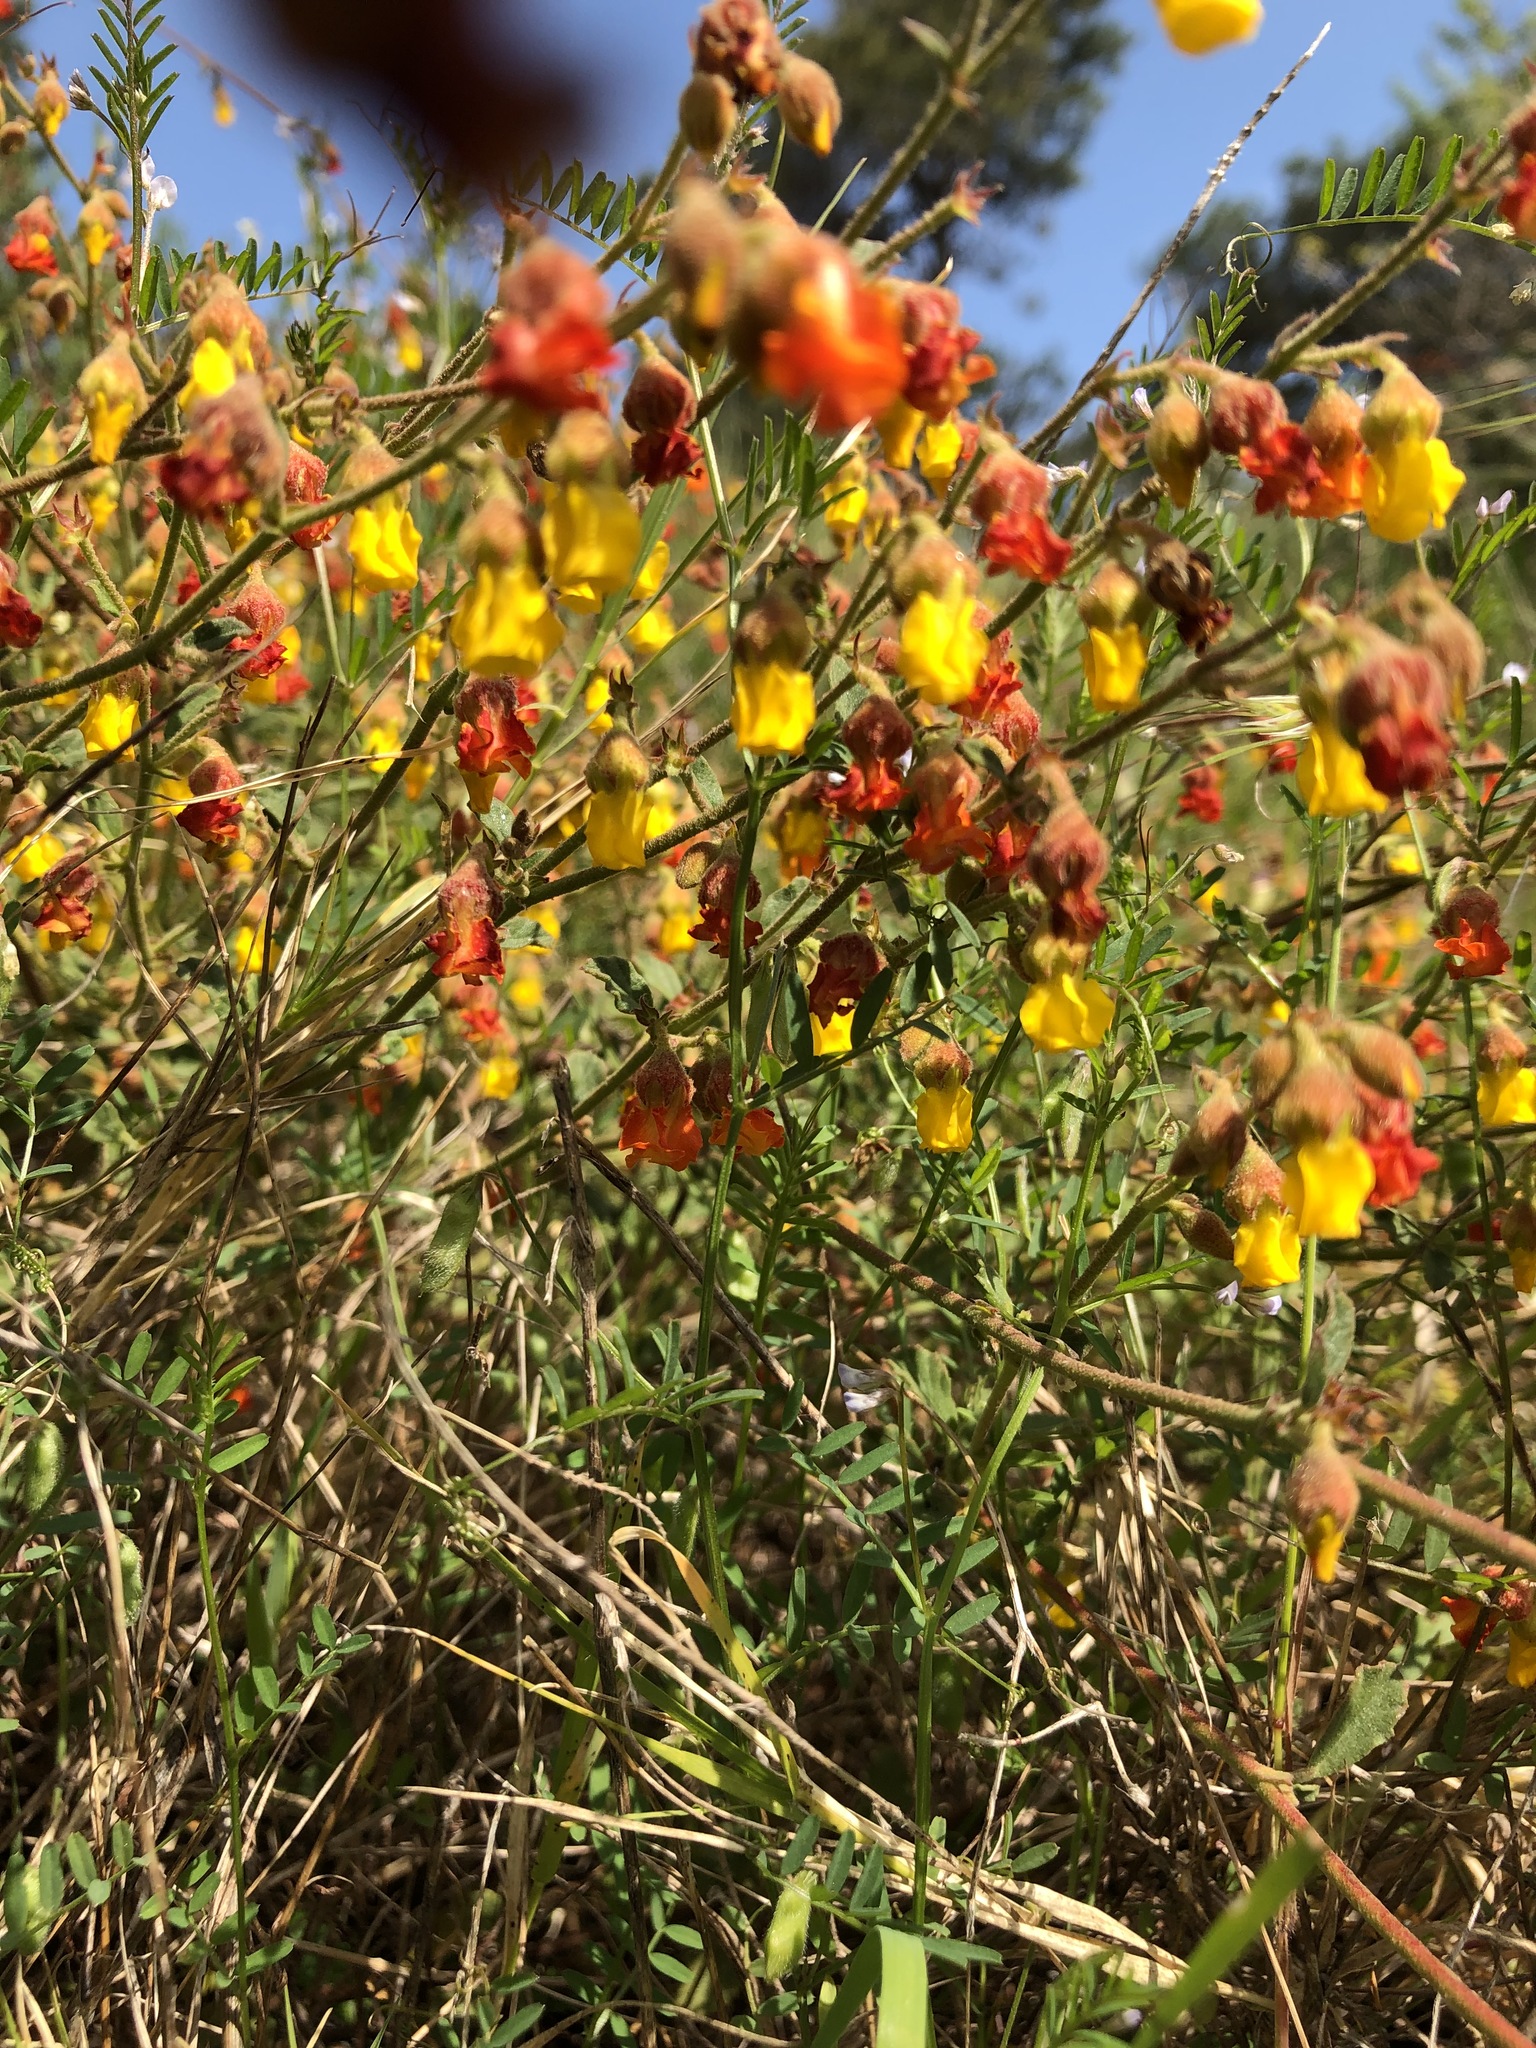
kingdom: Plantae
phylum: Tracheophyta
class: Magnoliopsida
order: Malvales
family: Malvaceae
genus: Hermannia
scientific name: Hermannia multiflora
